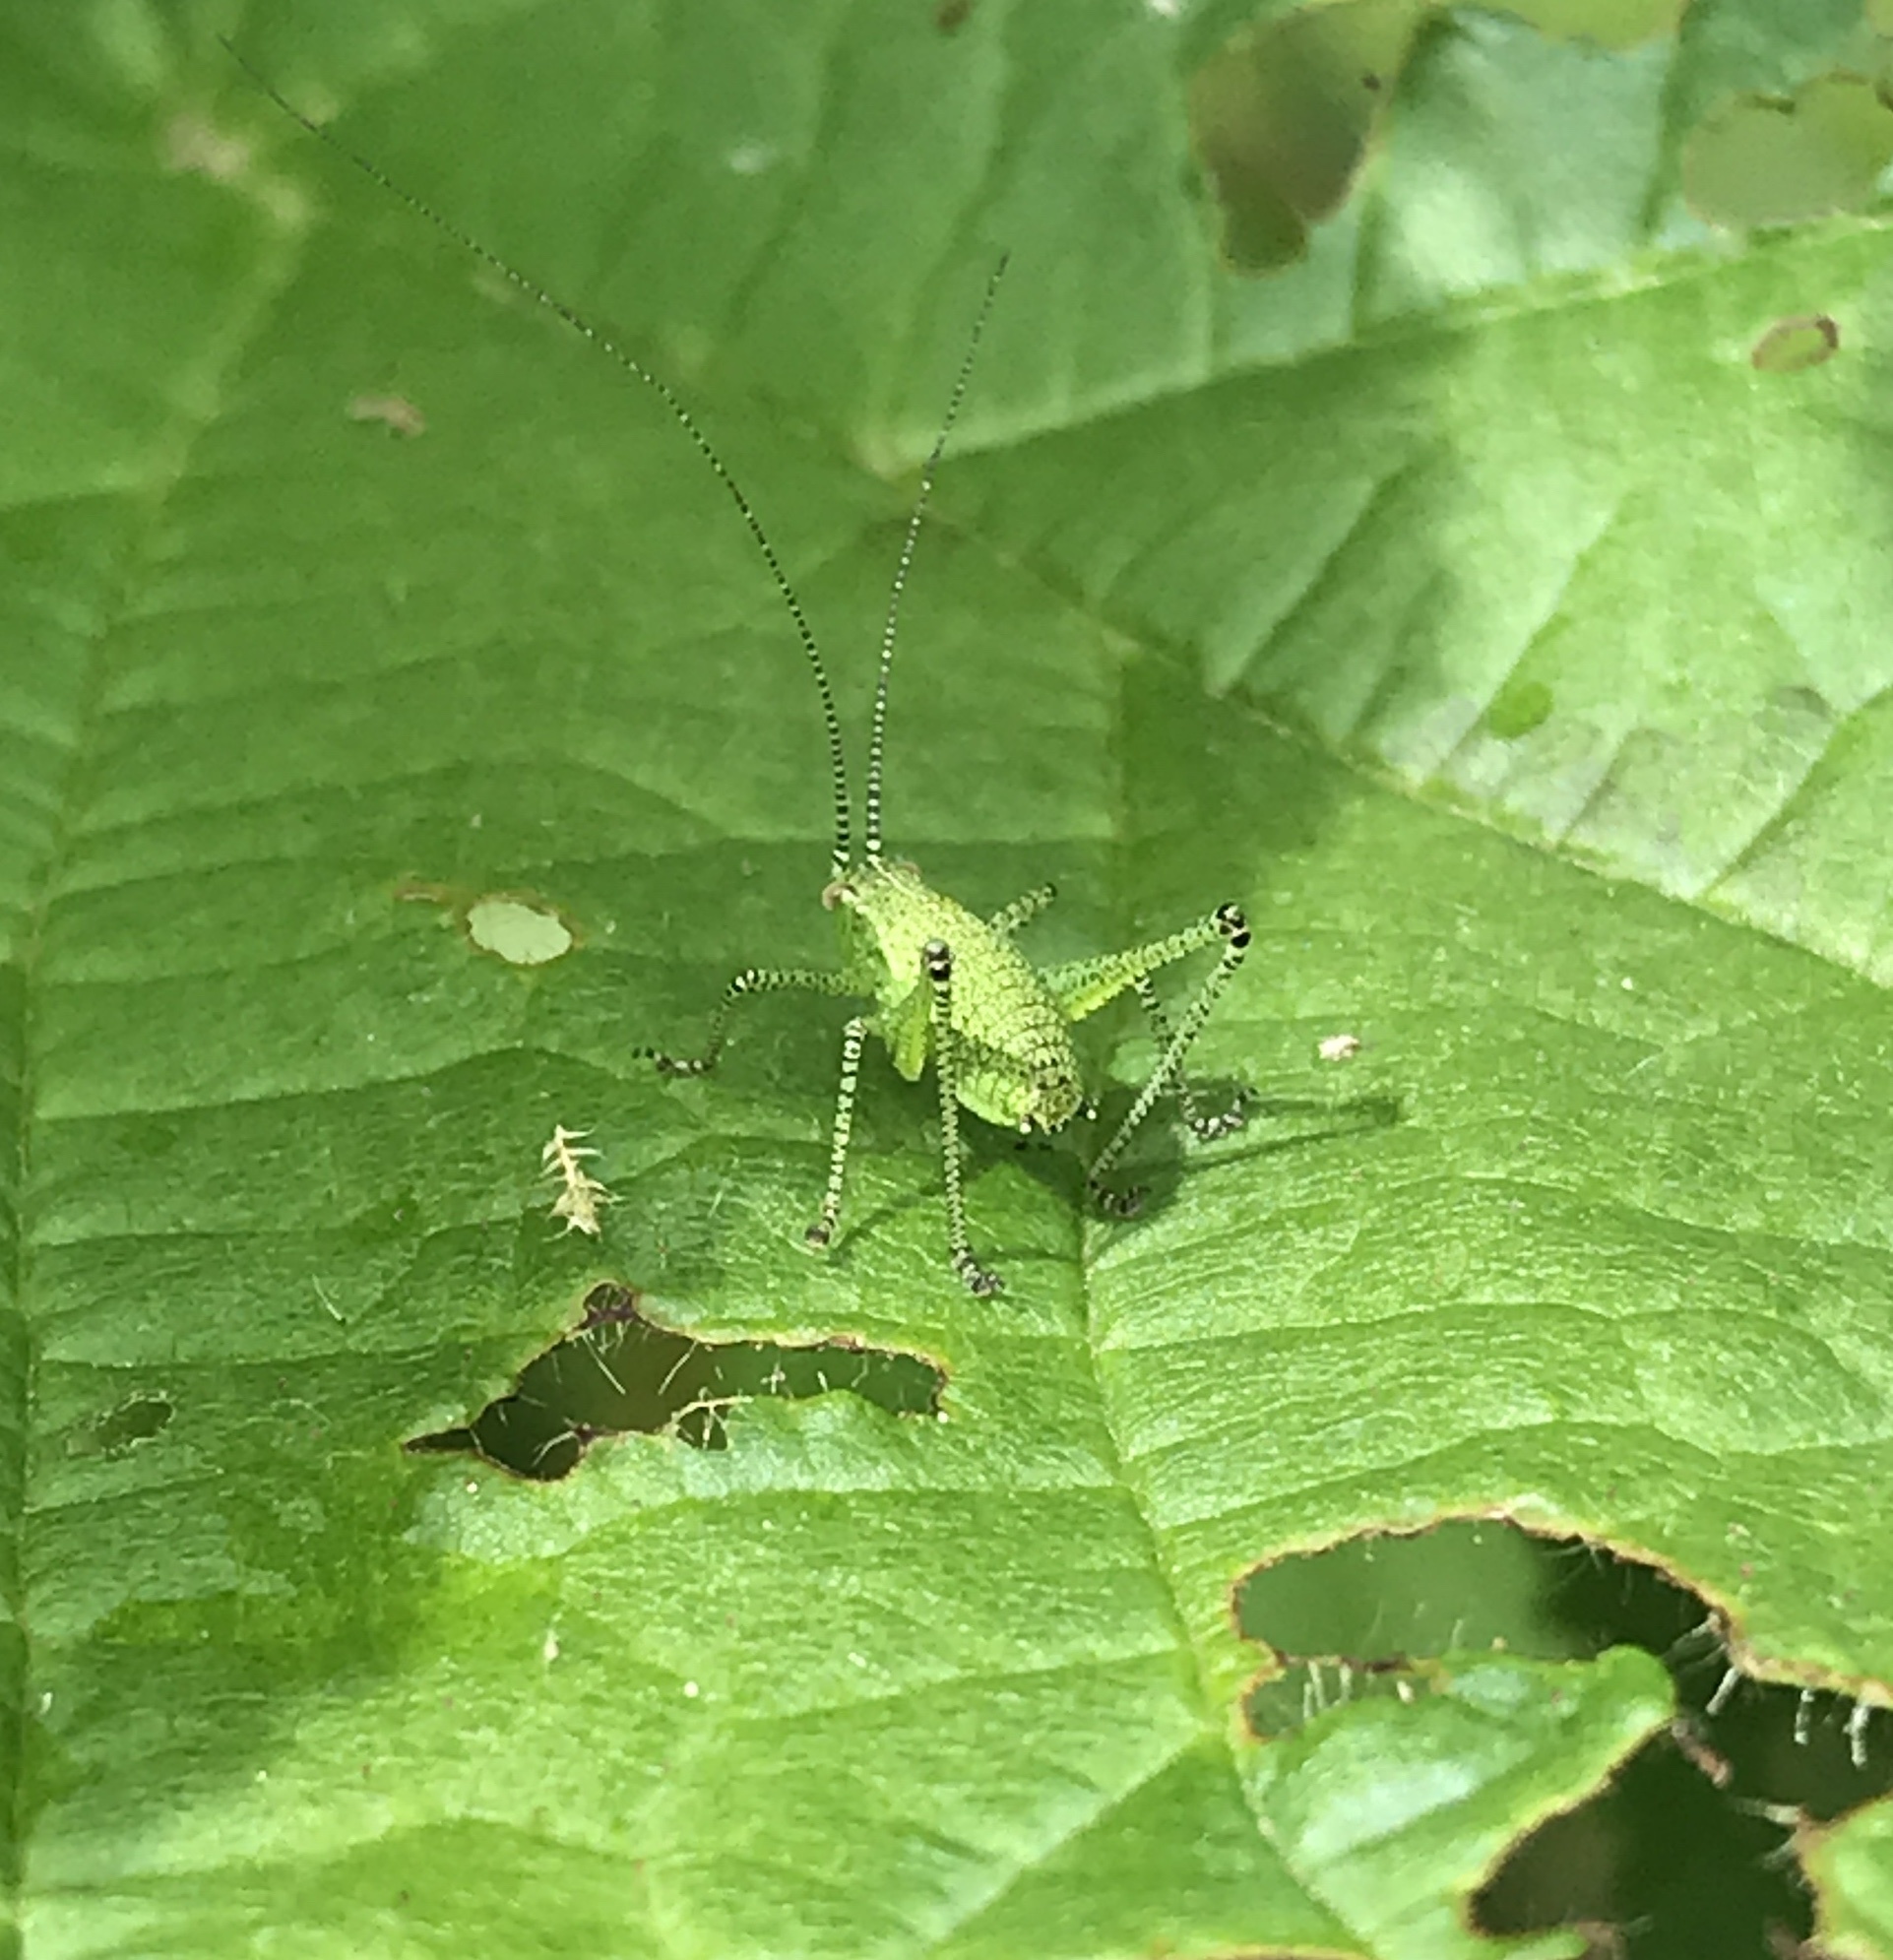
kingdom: Animalia
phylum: Arthropoda
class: Insecta
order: Orthoptera
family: Tettigoniidae
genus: Leptophyes
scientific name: Leptophyes punctatissima
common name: Speckled bush-cricket
